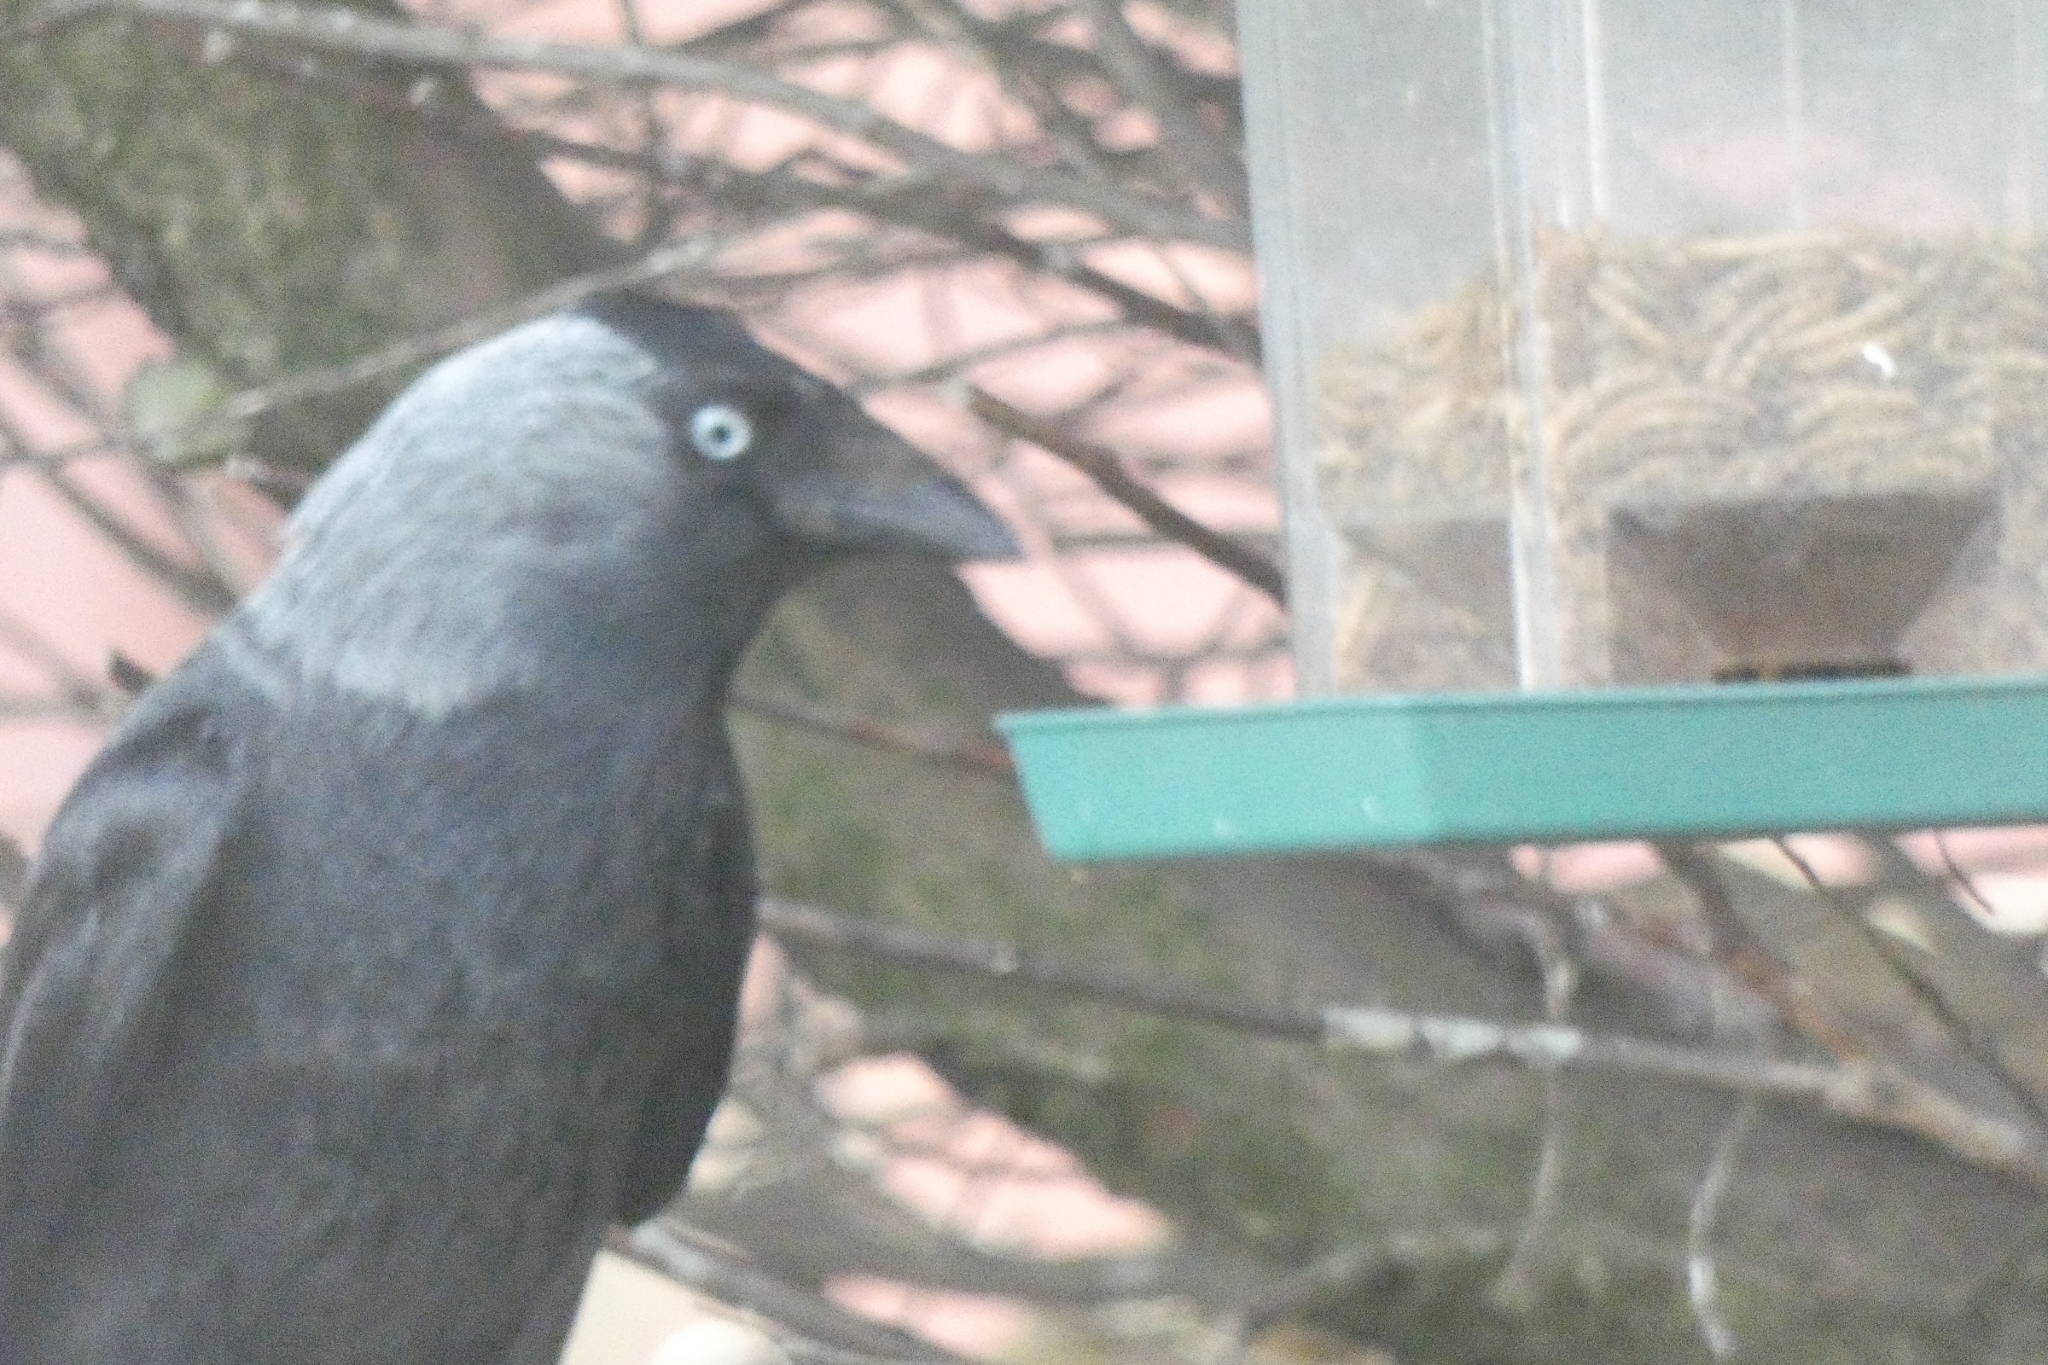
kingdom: Animalia
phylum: Chordata
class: Aves
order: Passeriformes
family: Corvidae
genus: Coloeus
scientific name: Coloeus monedula
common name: Western jackdaw
